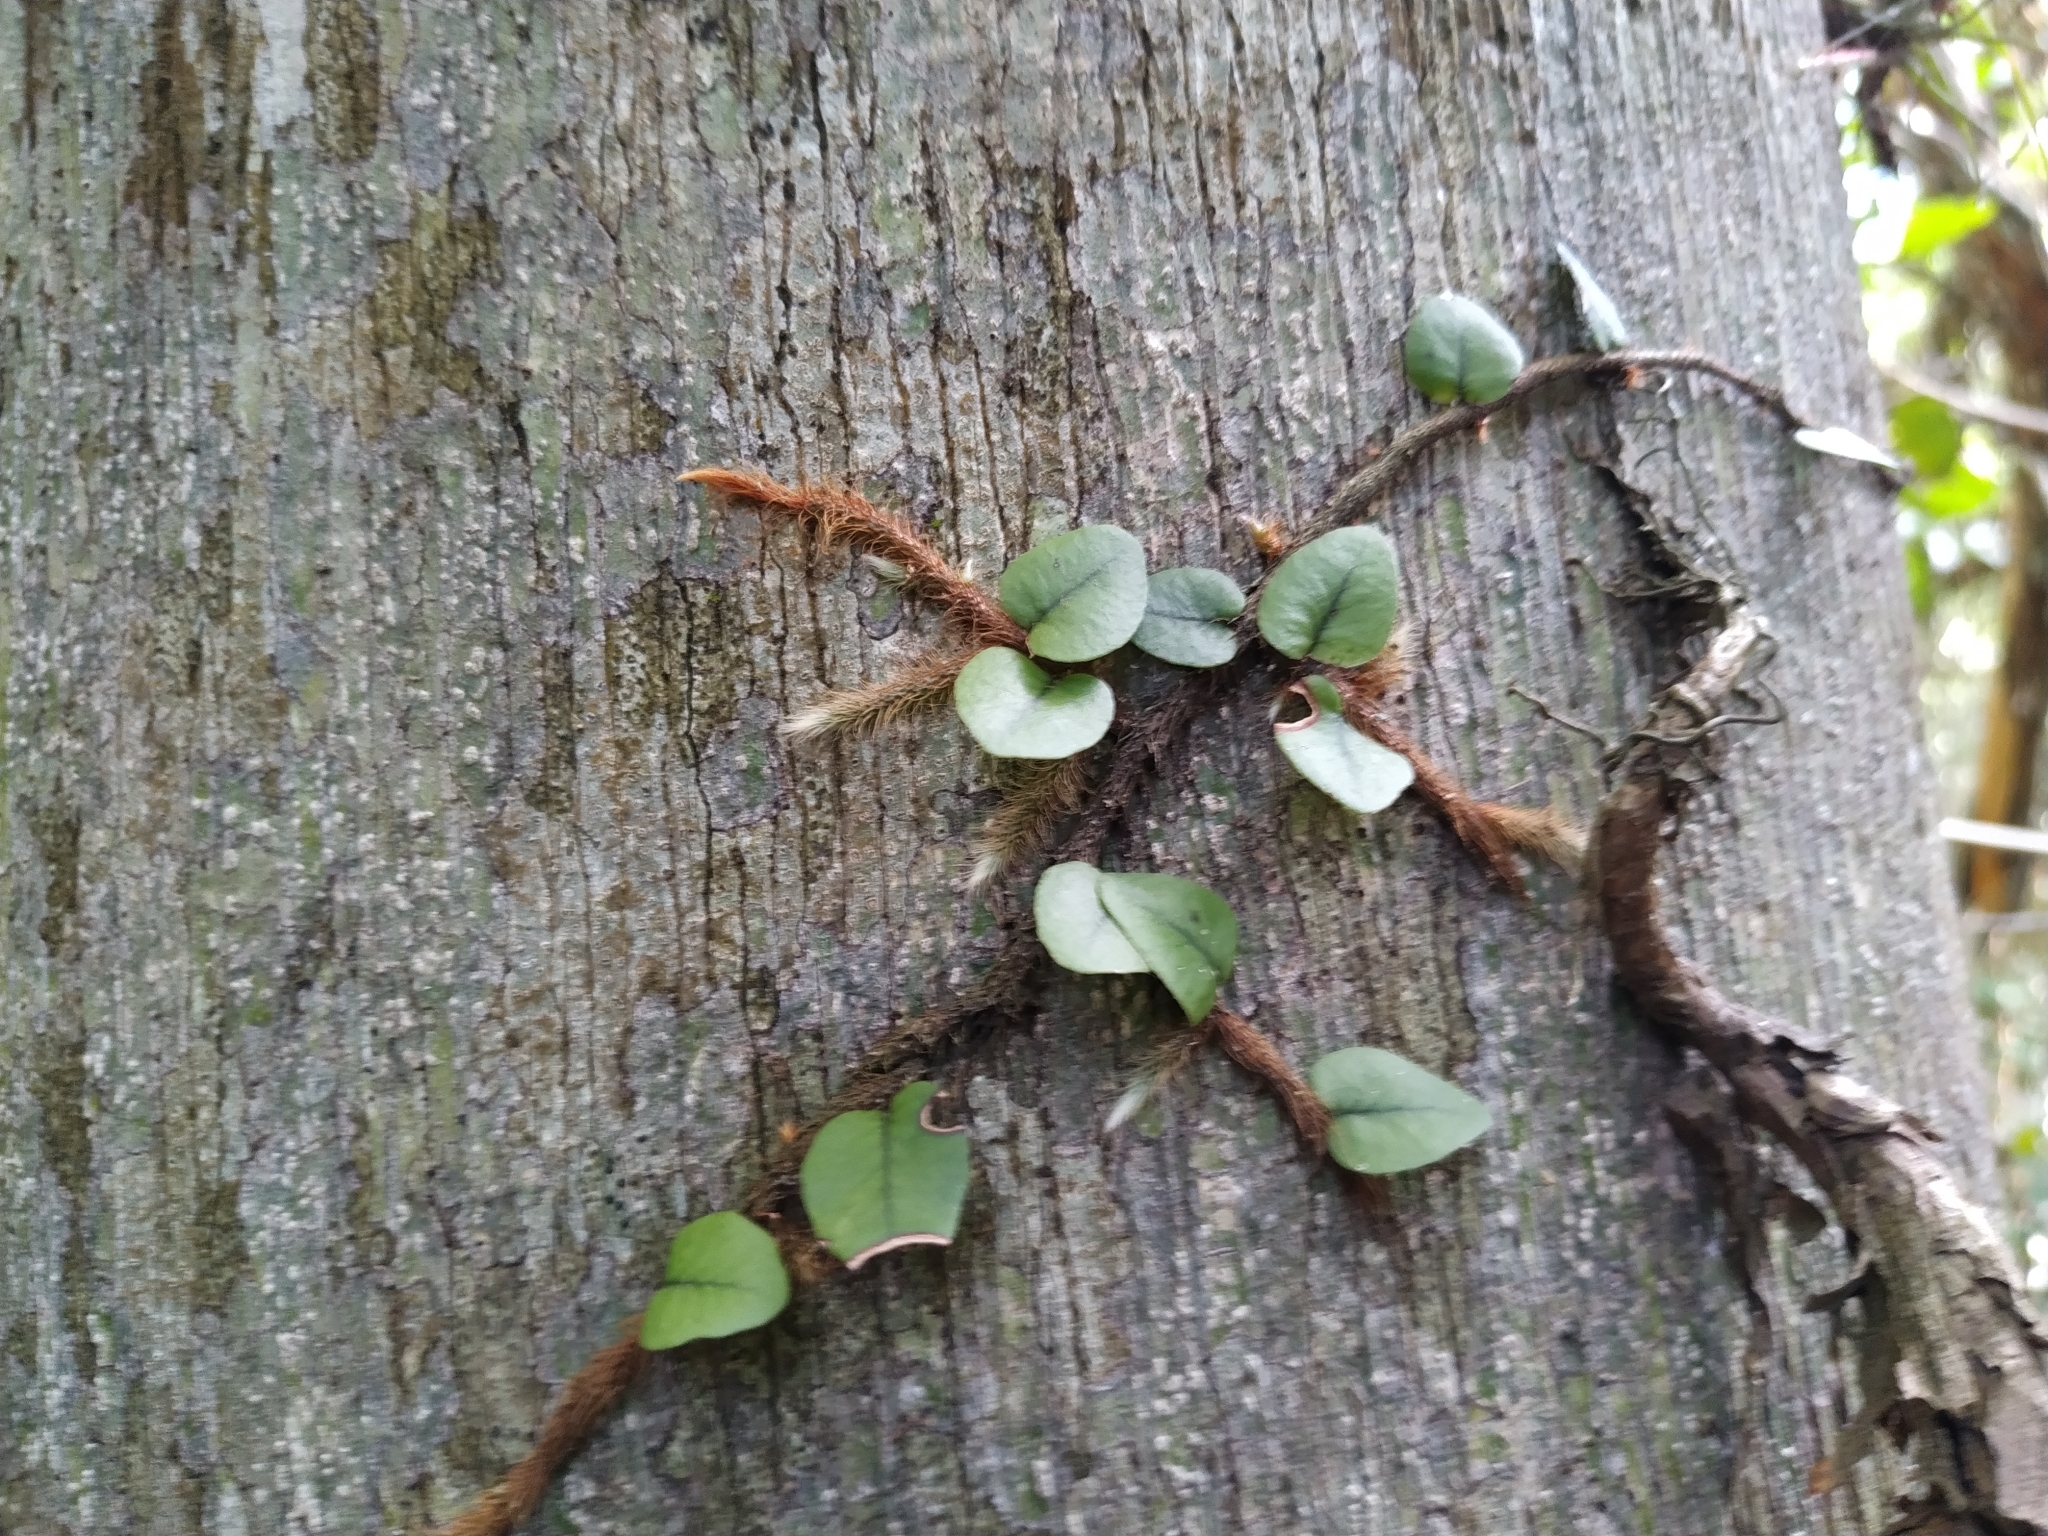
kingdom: Plantae
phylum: Tracheophyta
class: Polypodiopsida
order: Polypodiales
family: Polypodiaceae
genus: Microgramma
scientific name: Microgramma vaccinifolia
